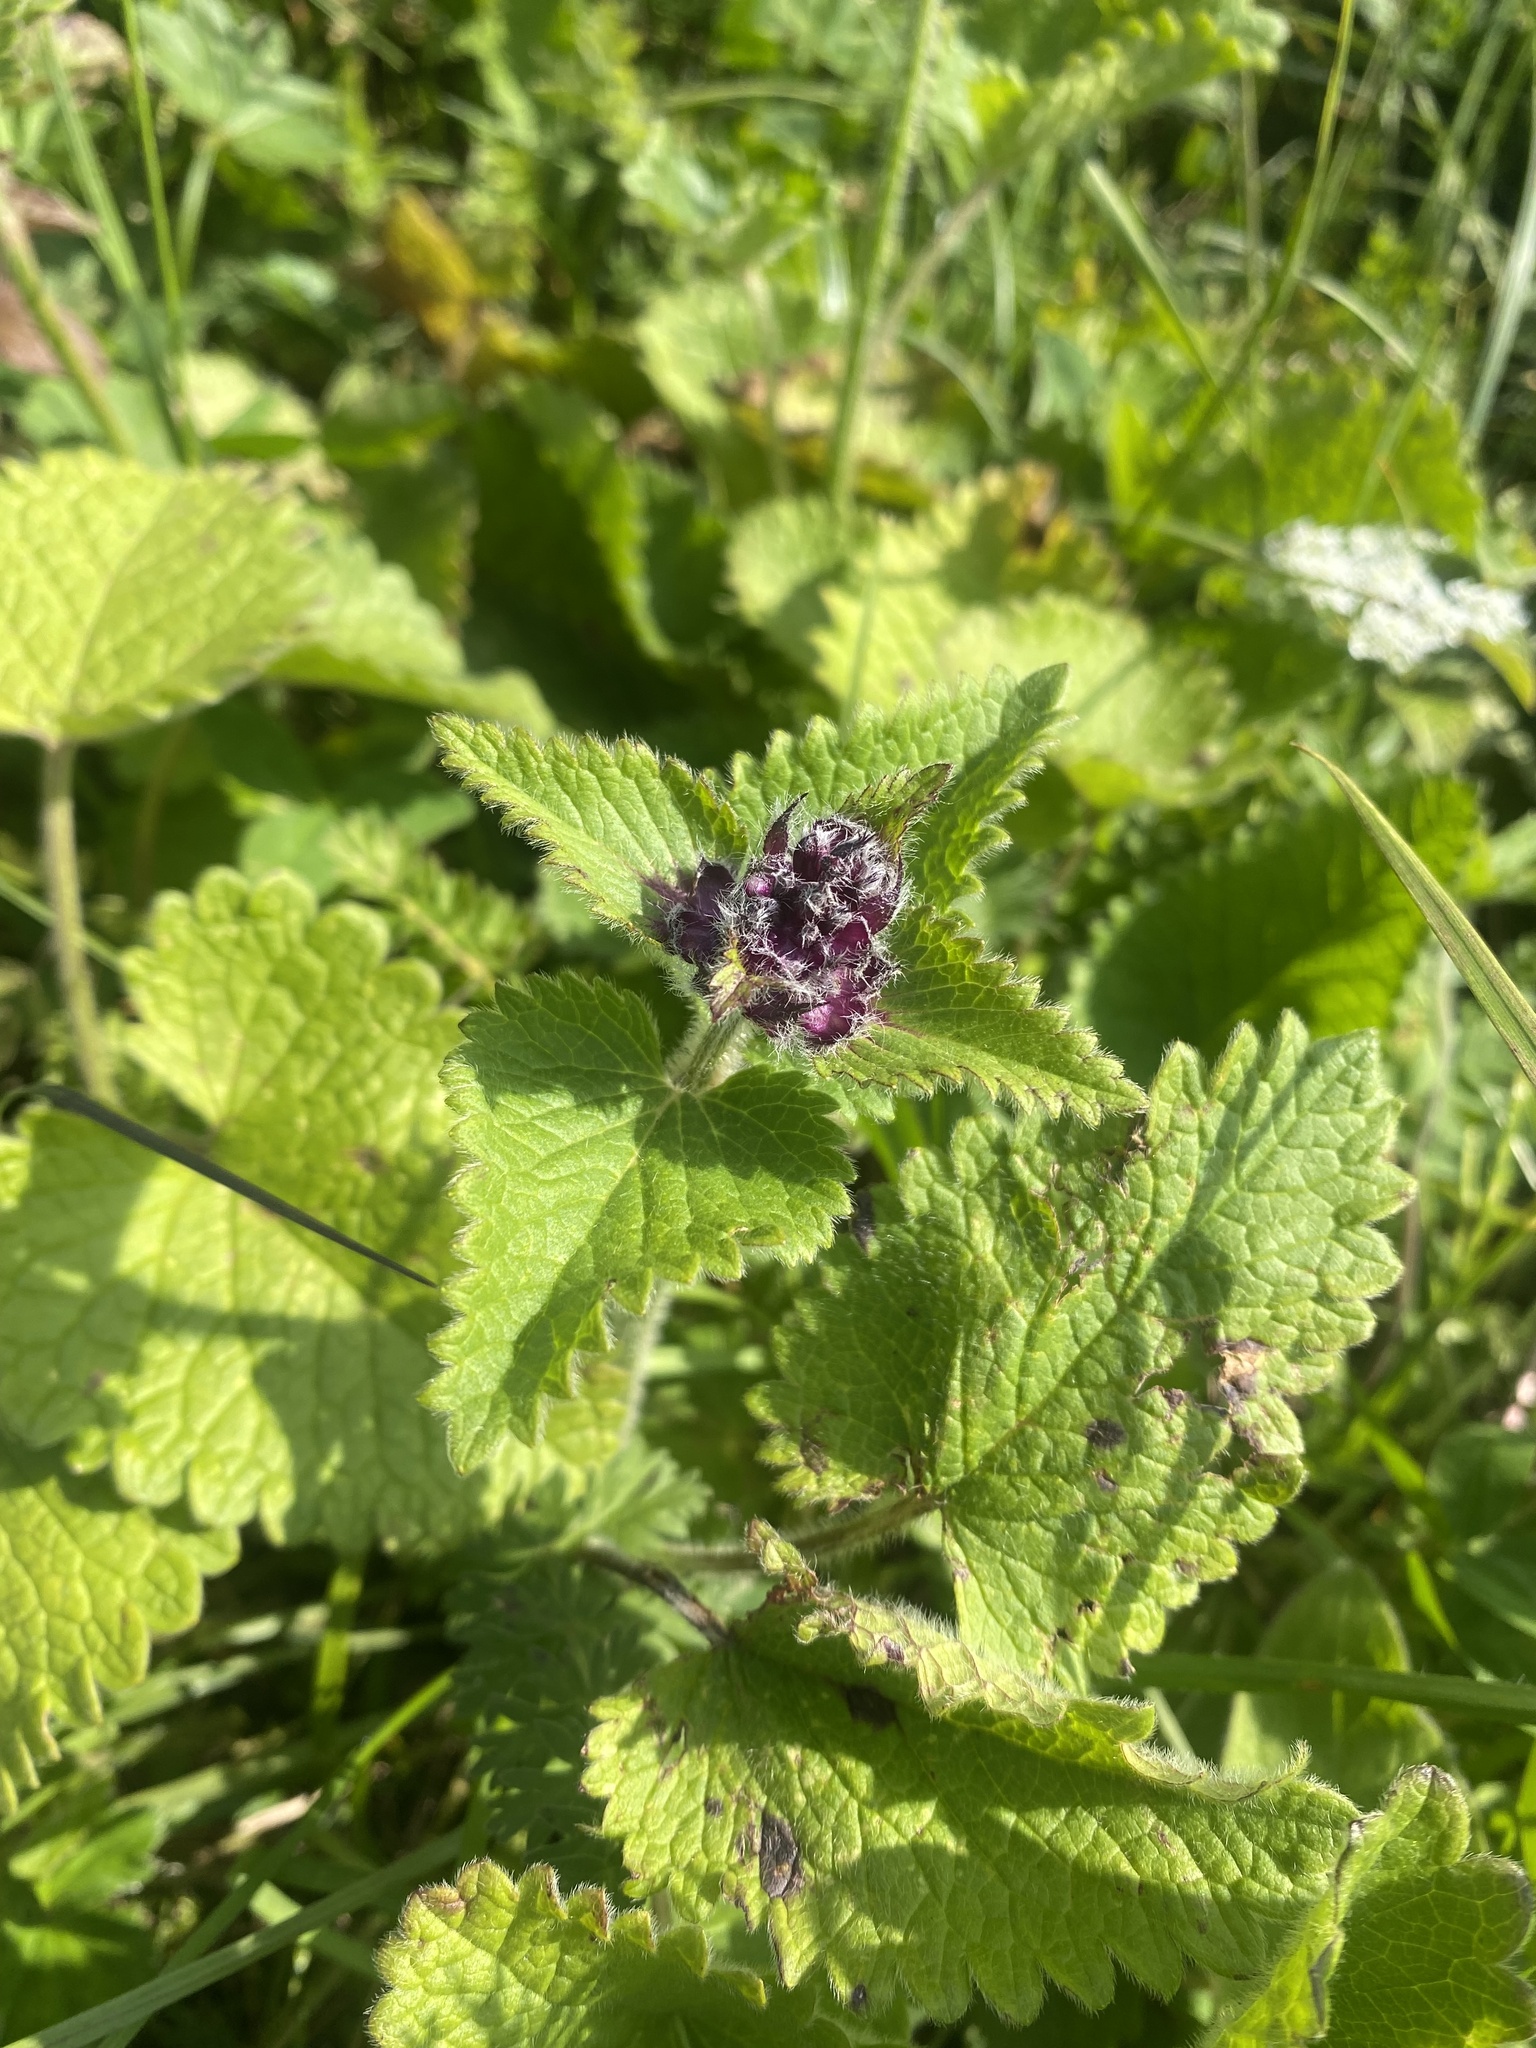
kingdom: Plantae
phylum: Tracheophyta
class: Magnoliopsida
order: Lamiales
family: Lamiaceae
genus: Betonica
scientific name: Betonica macrantha
